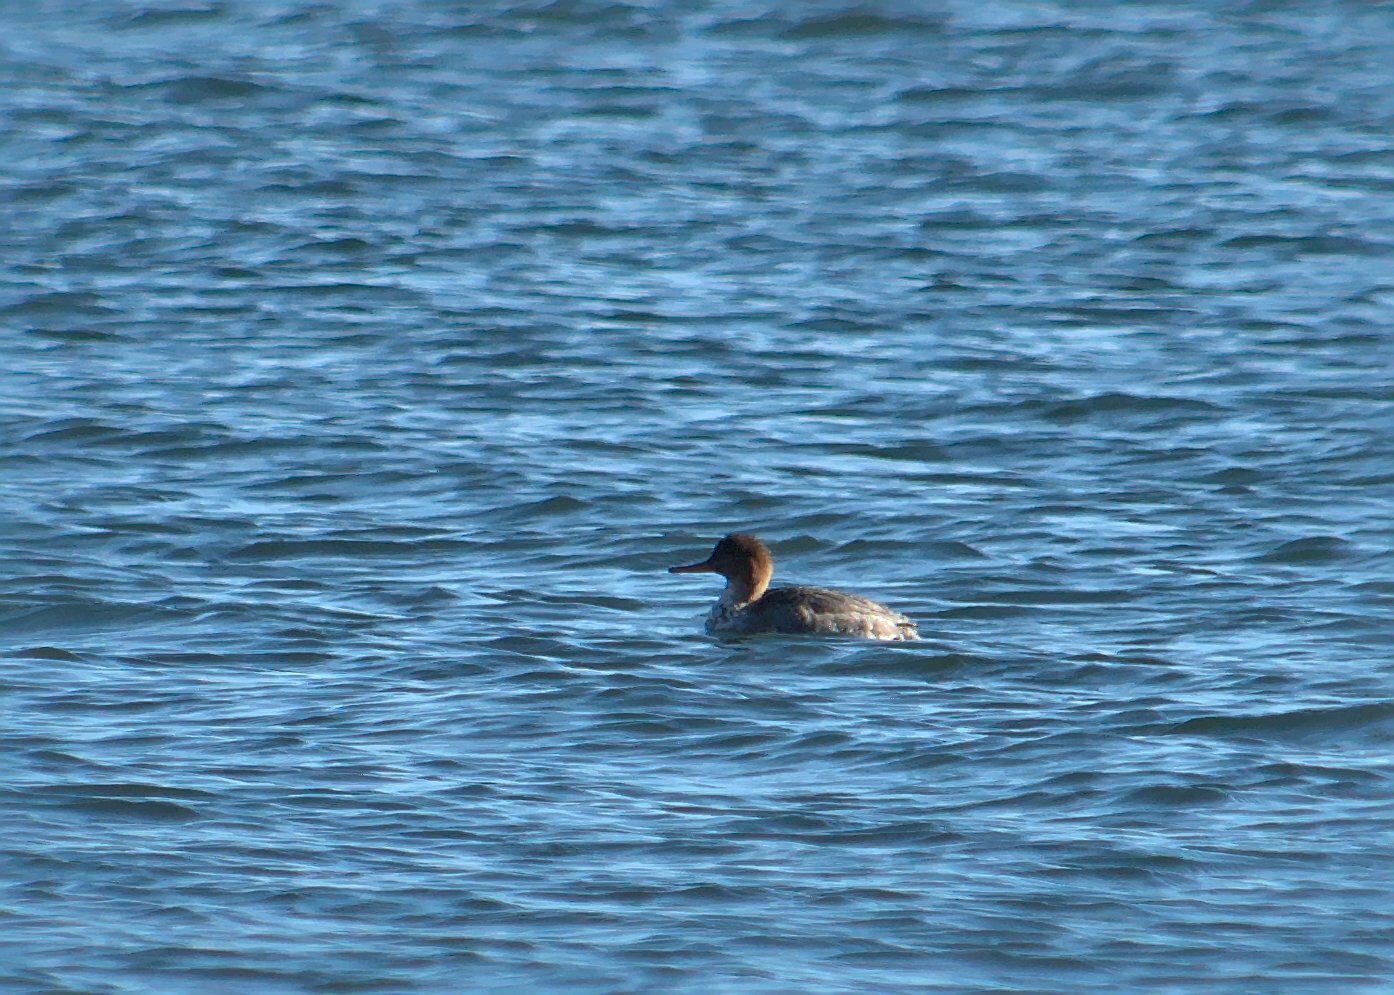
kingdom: Animalia
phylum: Chordata
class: Aves
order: Anseriformes
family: Anatidae
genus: Mergus
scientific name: Mergus serrator
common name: Red-breasted merganser
